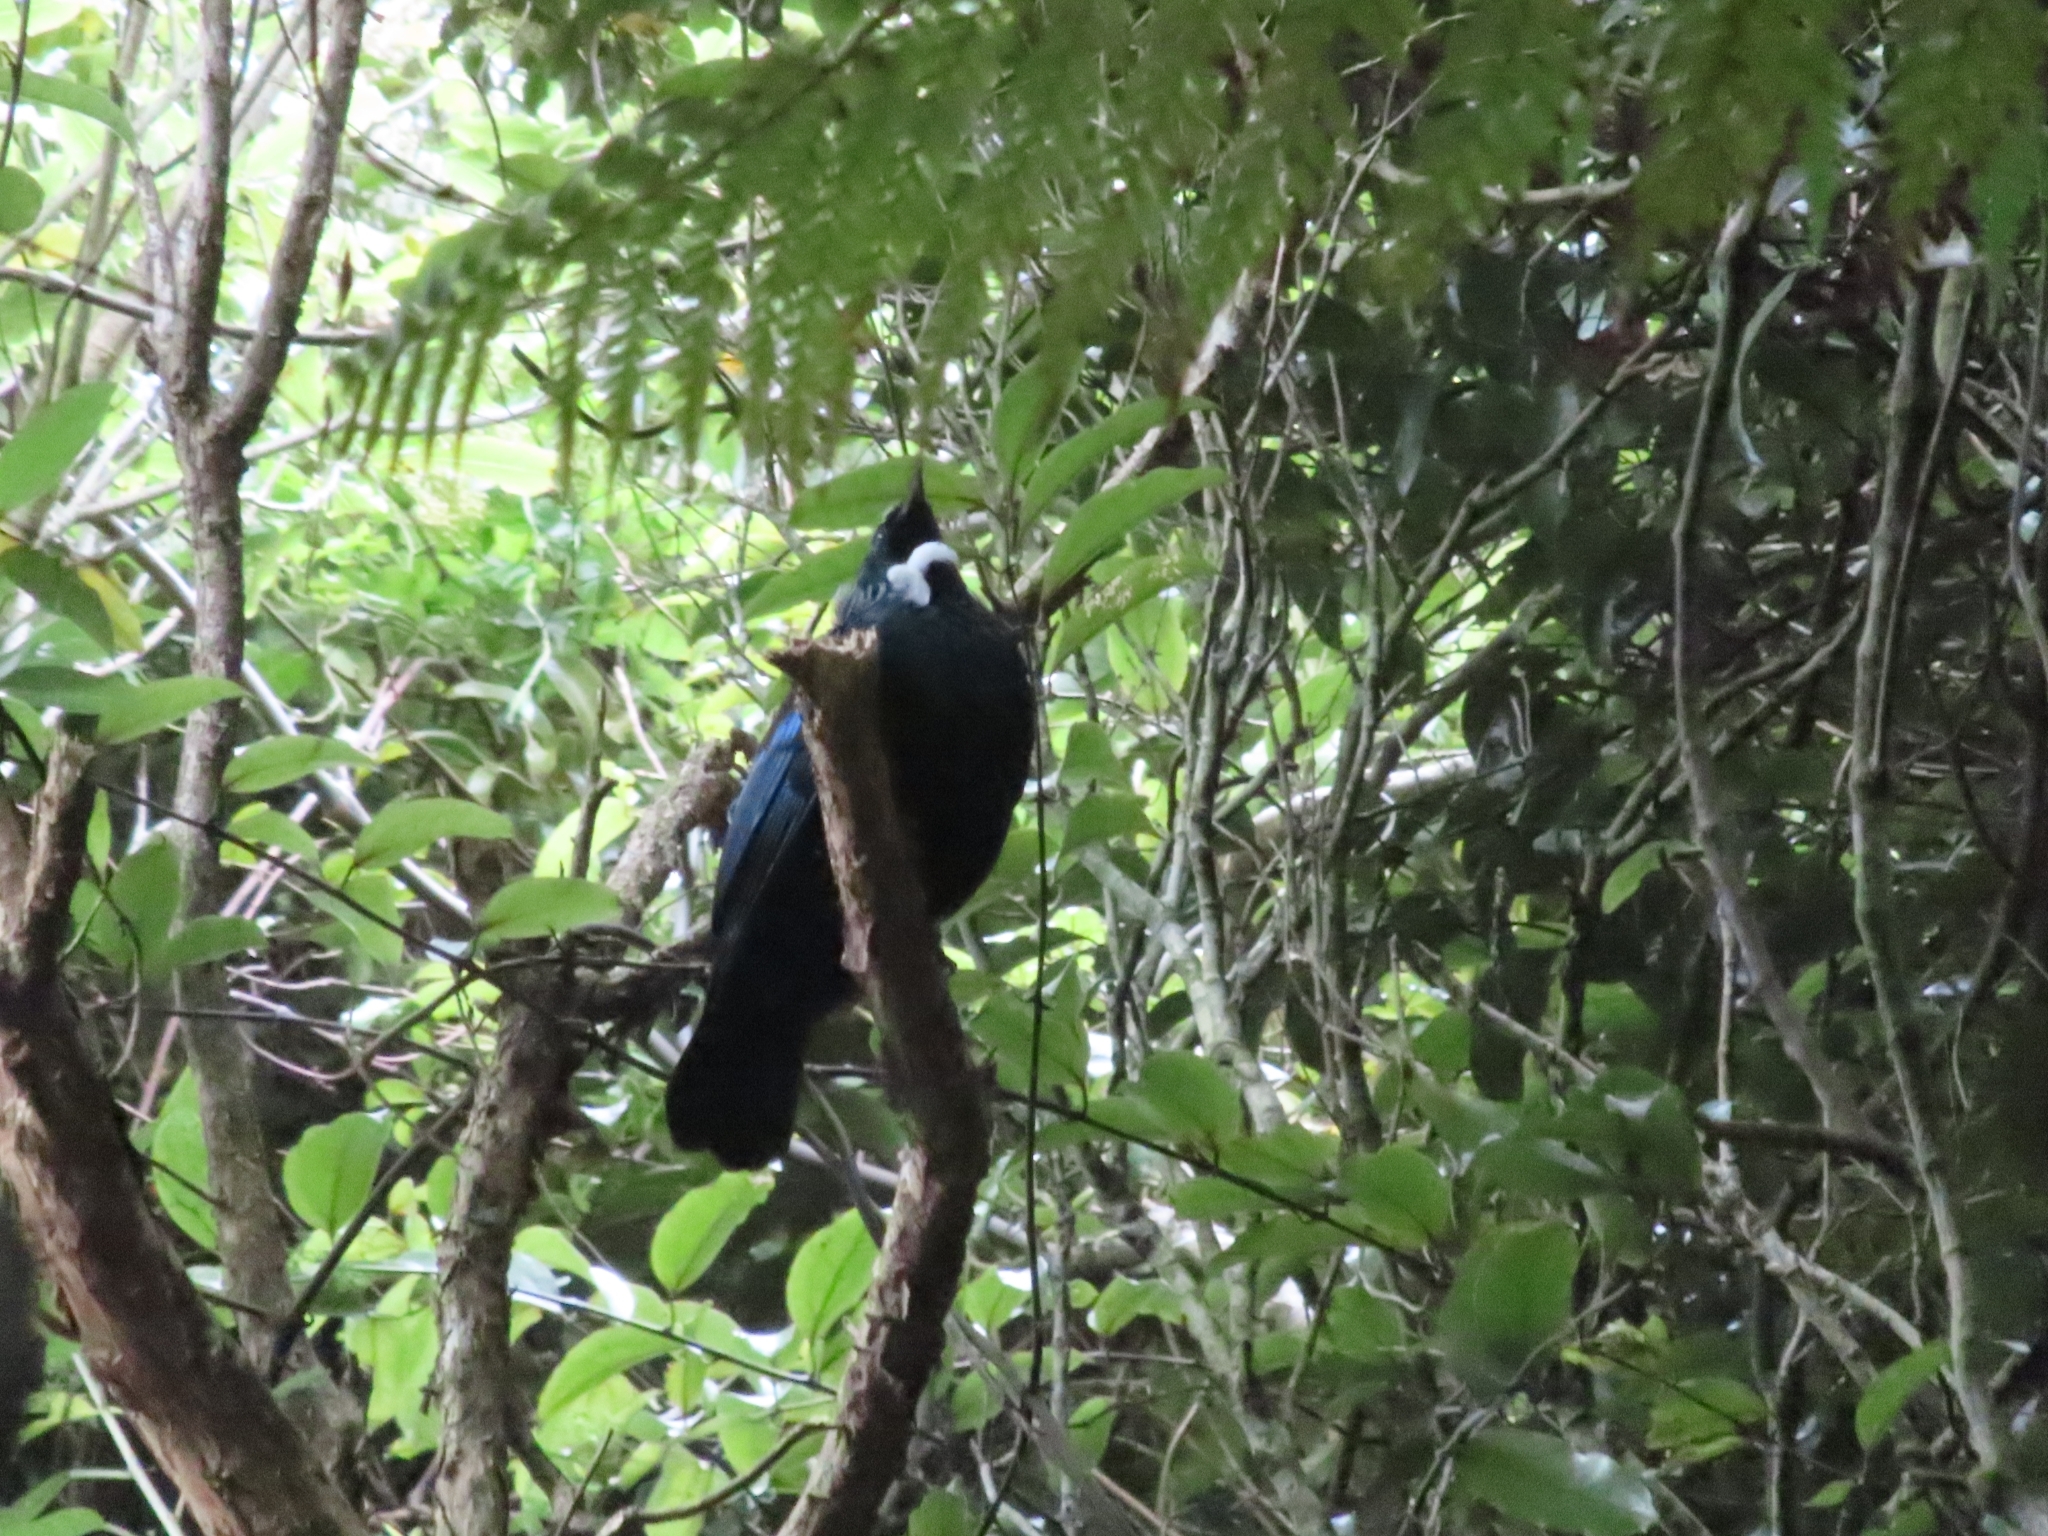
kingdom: Animalia
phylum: Chordata
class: Aves
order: Passeriformes
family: Meliphagidae
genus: Prosthemadera
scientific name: Prosthemadera novaeseelandiae
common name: Tui
